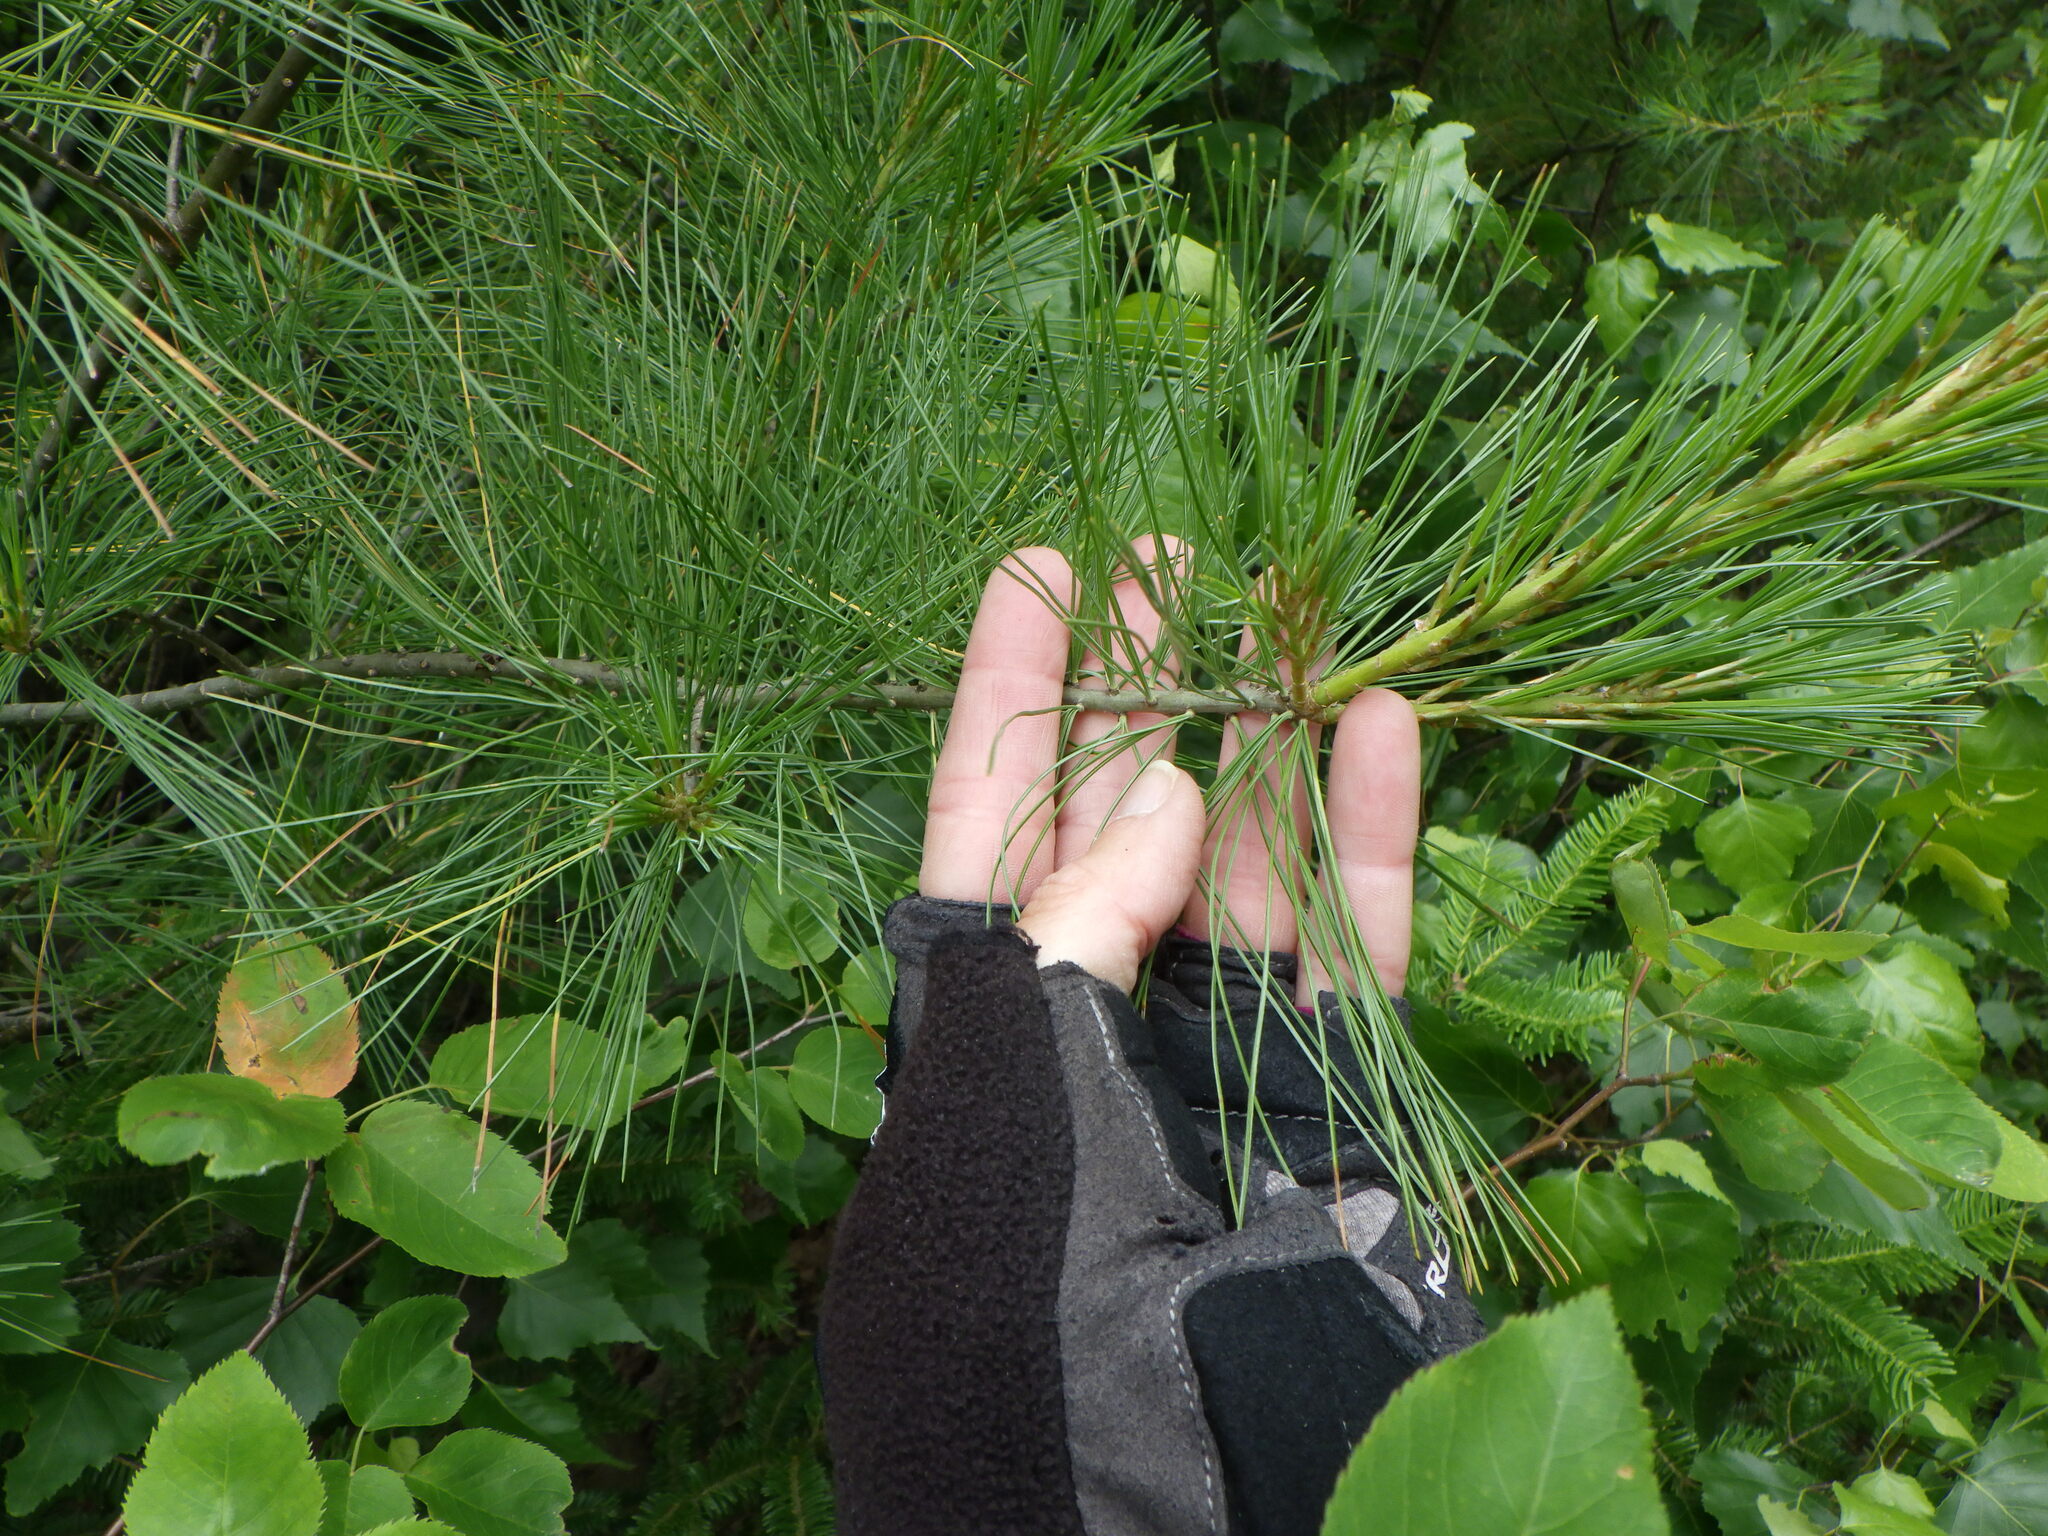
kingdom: Plantae
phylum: Tracheophyta
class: Pinopsida
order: Pinales
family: Pinaceae
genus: Pinus
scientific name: Pinus strobus
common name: Weymouth pine
